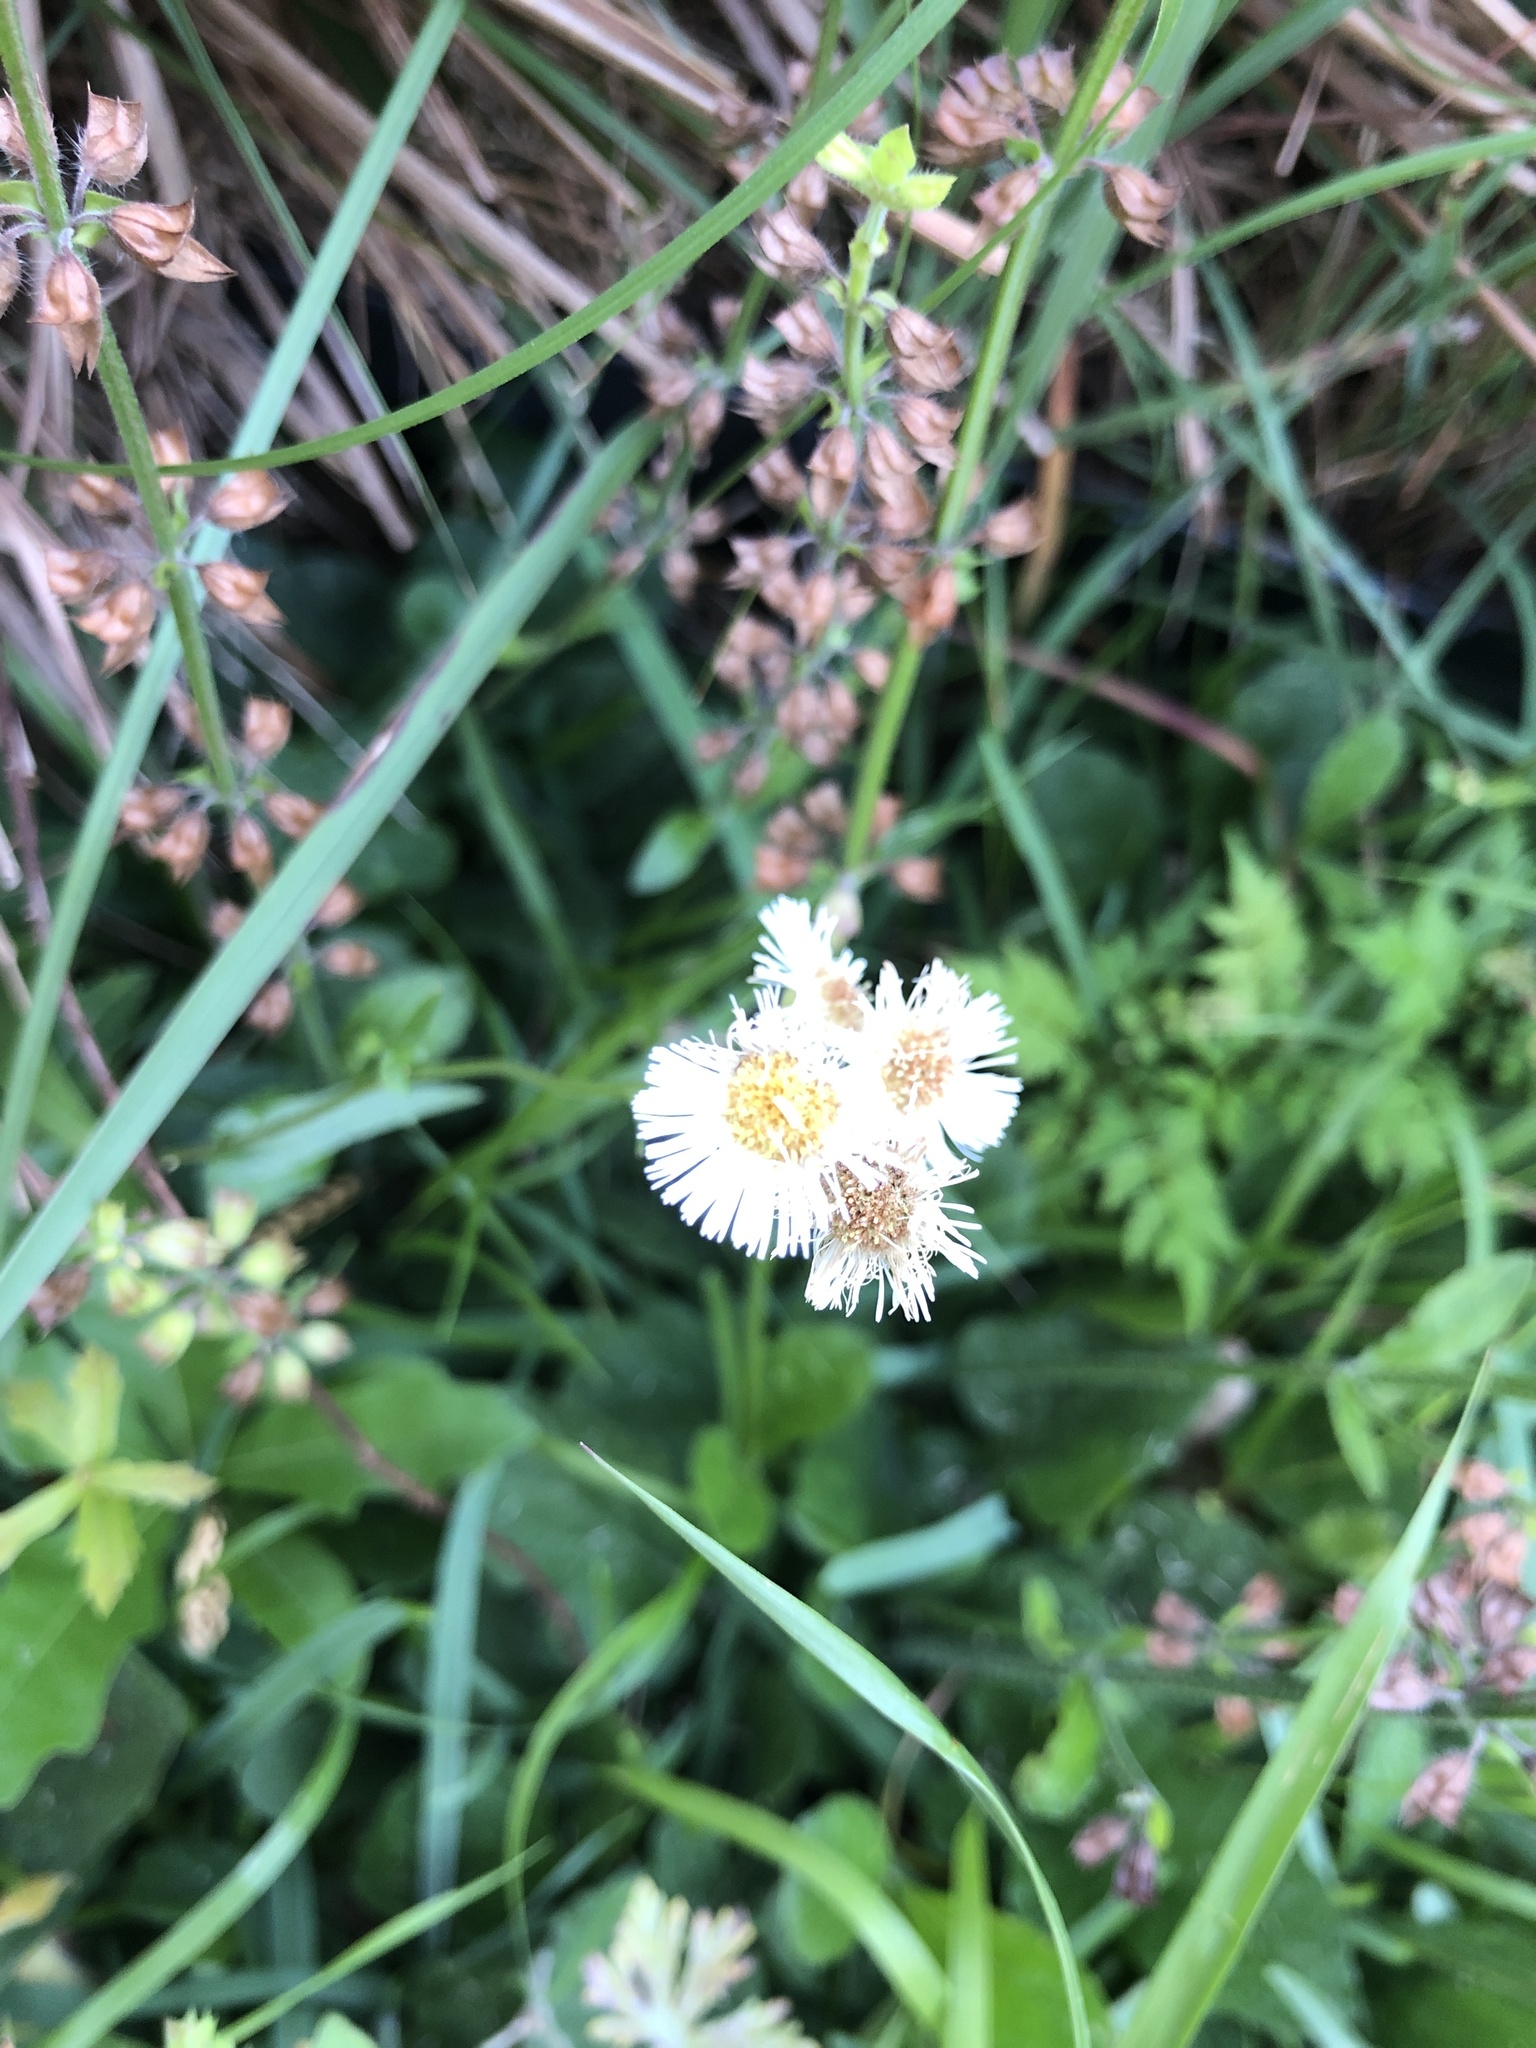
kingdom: Plantae
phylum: Tracheophyta
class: Magnoliopsida
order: Asterales
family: Asteraceae
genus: Erigeron
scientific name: Erigeron philadelphicus
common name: Robin's-plantain
